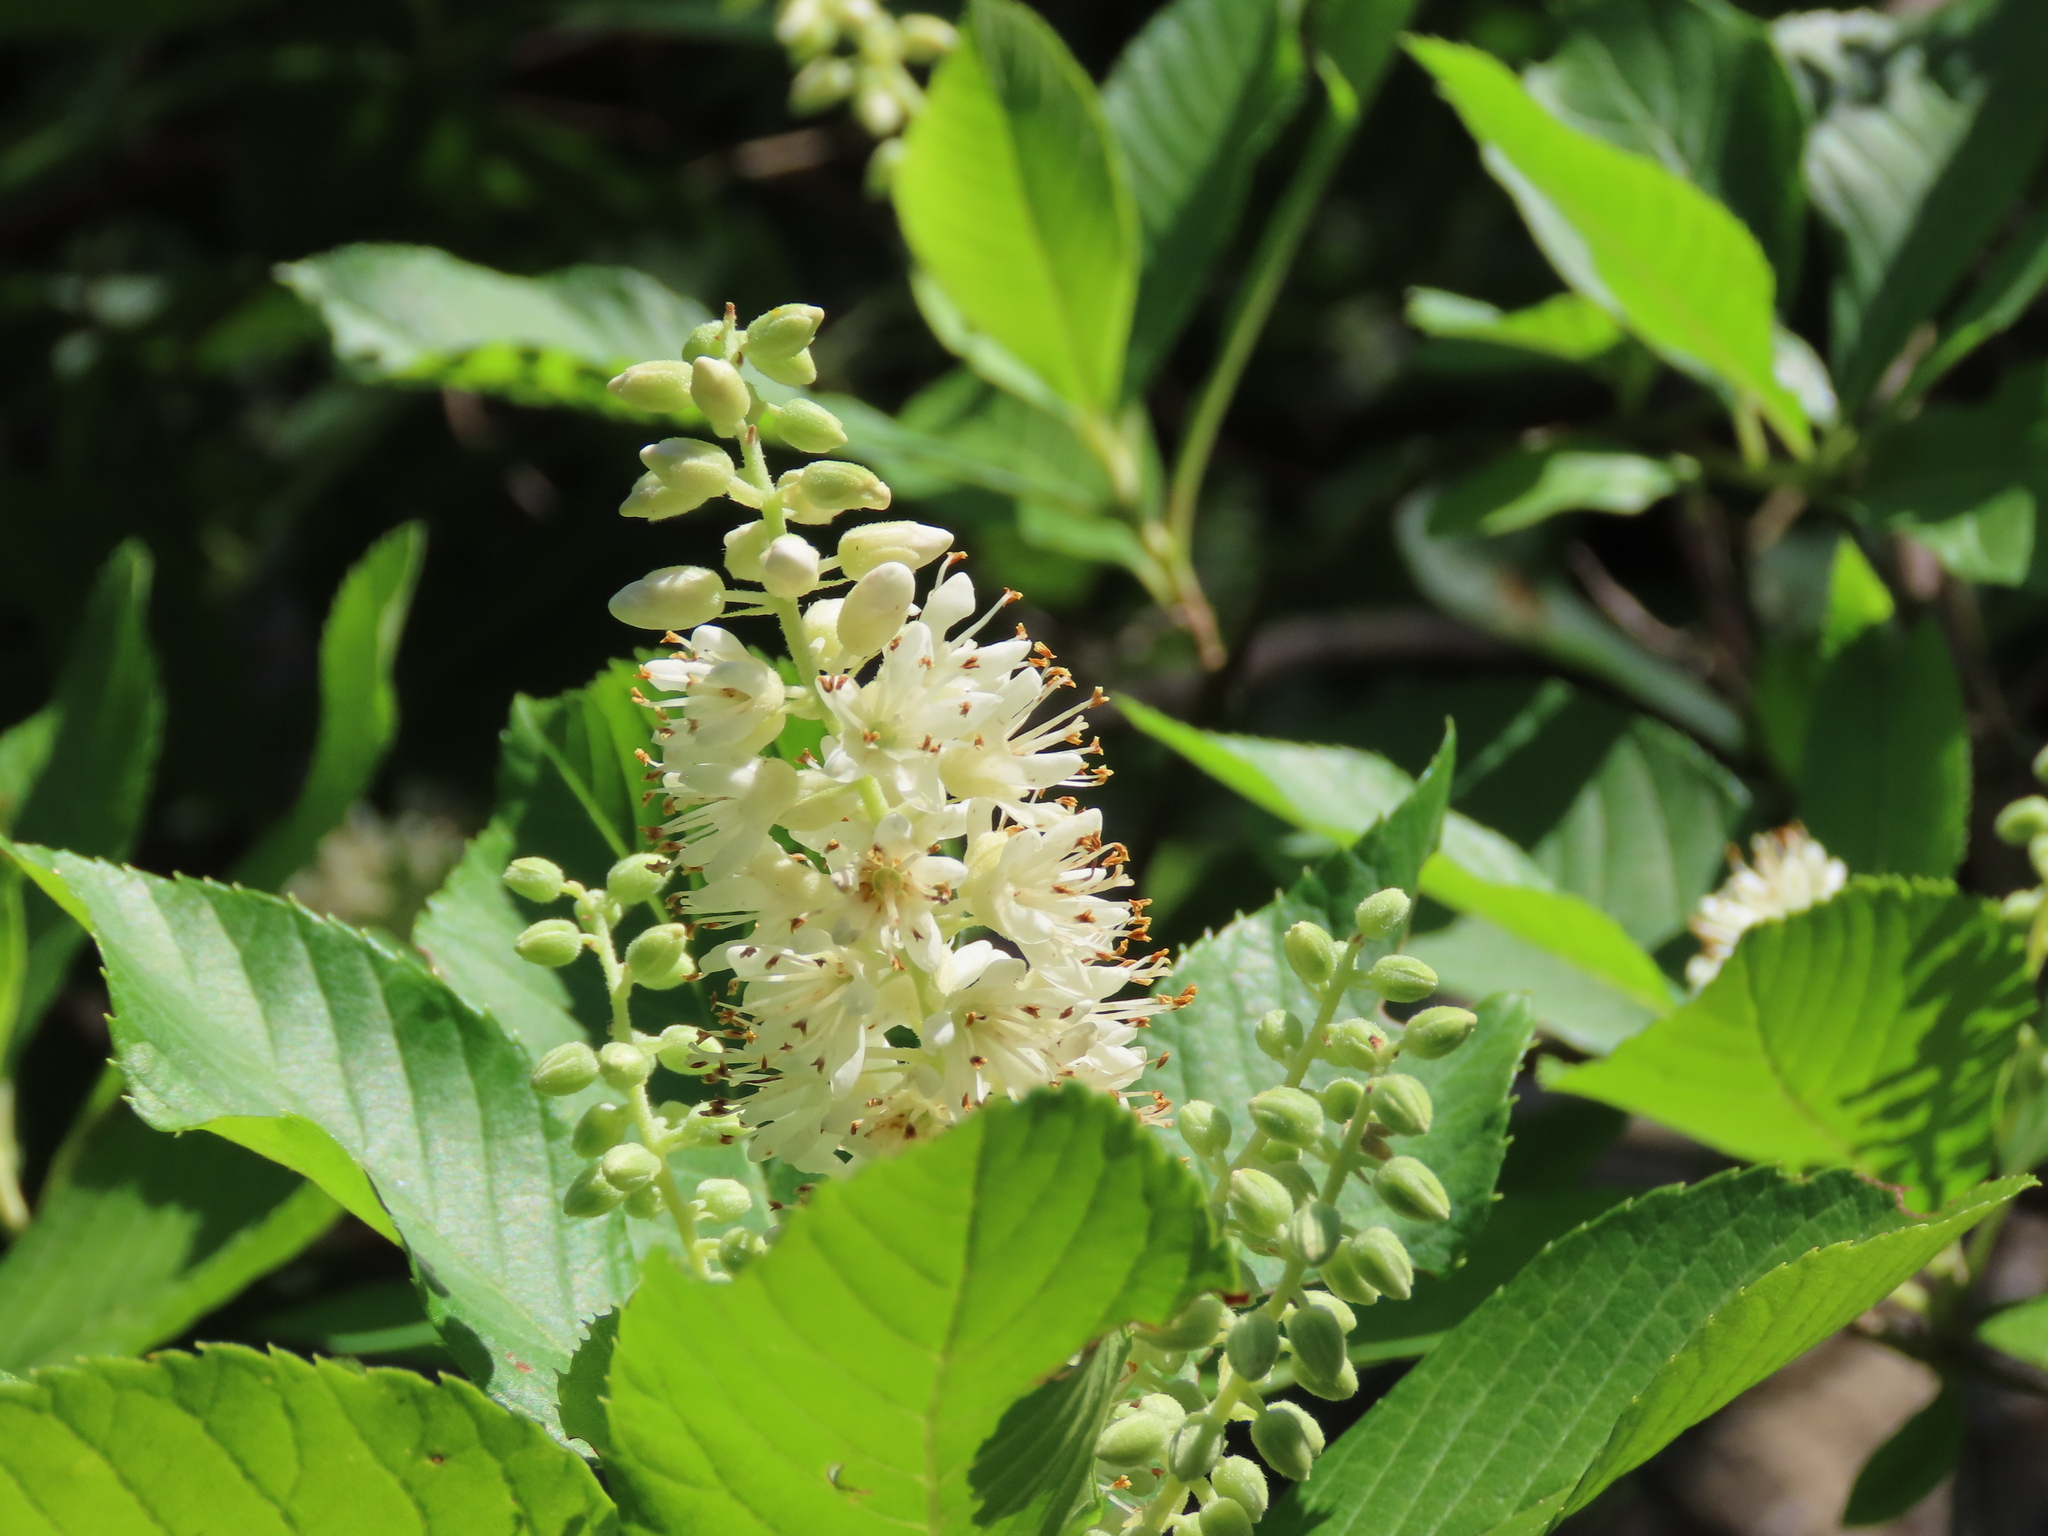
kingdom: Plantae
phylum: Tracheophyta
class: Magnoliopsida
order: Ericales
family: Clethraceae
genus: Clethra
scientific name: Clethra alnifolia
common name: Sweet pepperbush
